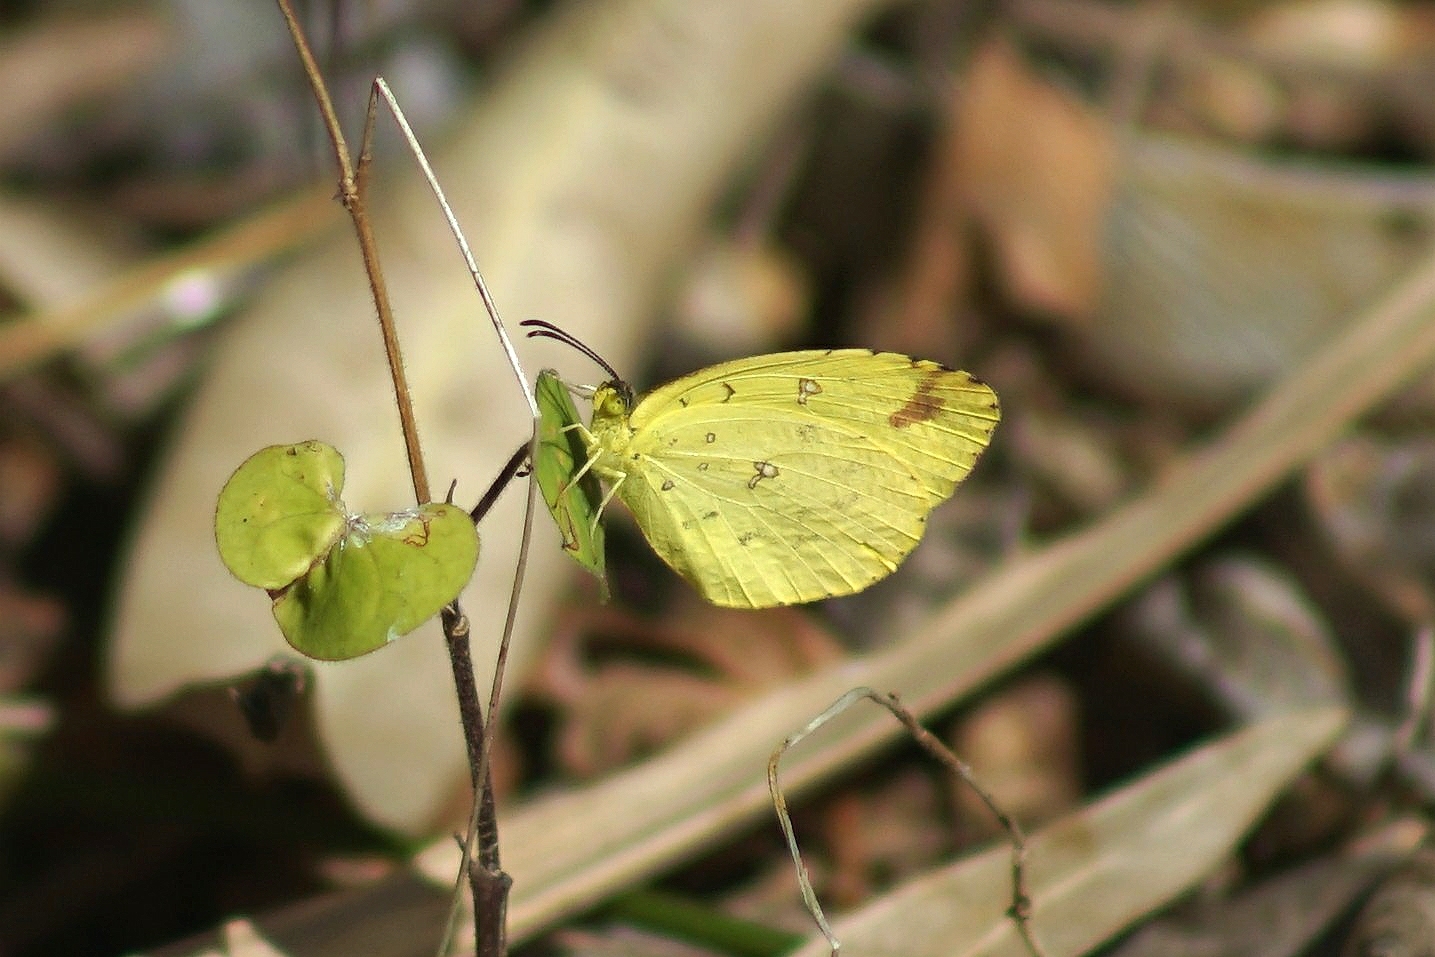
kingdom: Animalia
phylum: Arthropoda
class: Insecta
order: Lepidoptera
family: Pieridae
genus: Eurema
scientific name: Eurema floricola
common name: Malagasy grass yellow
